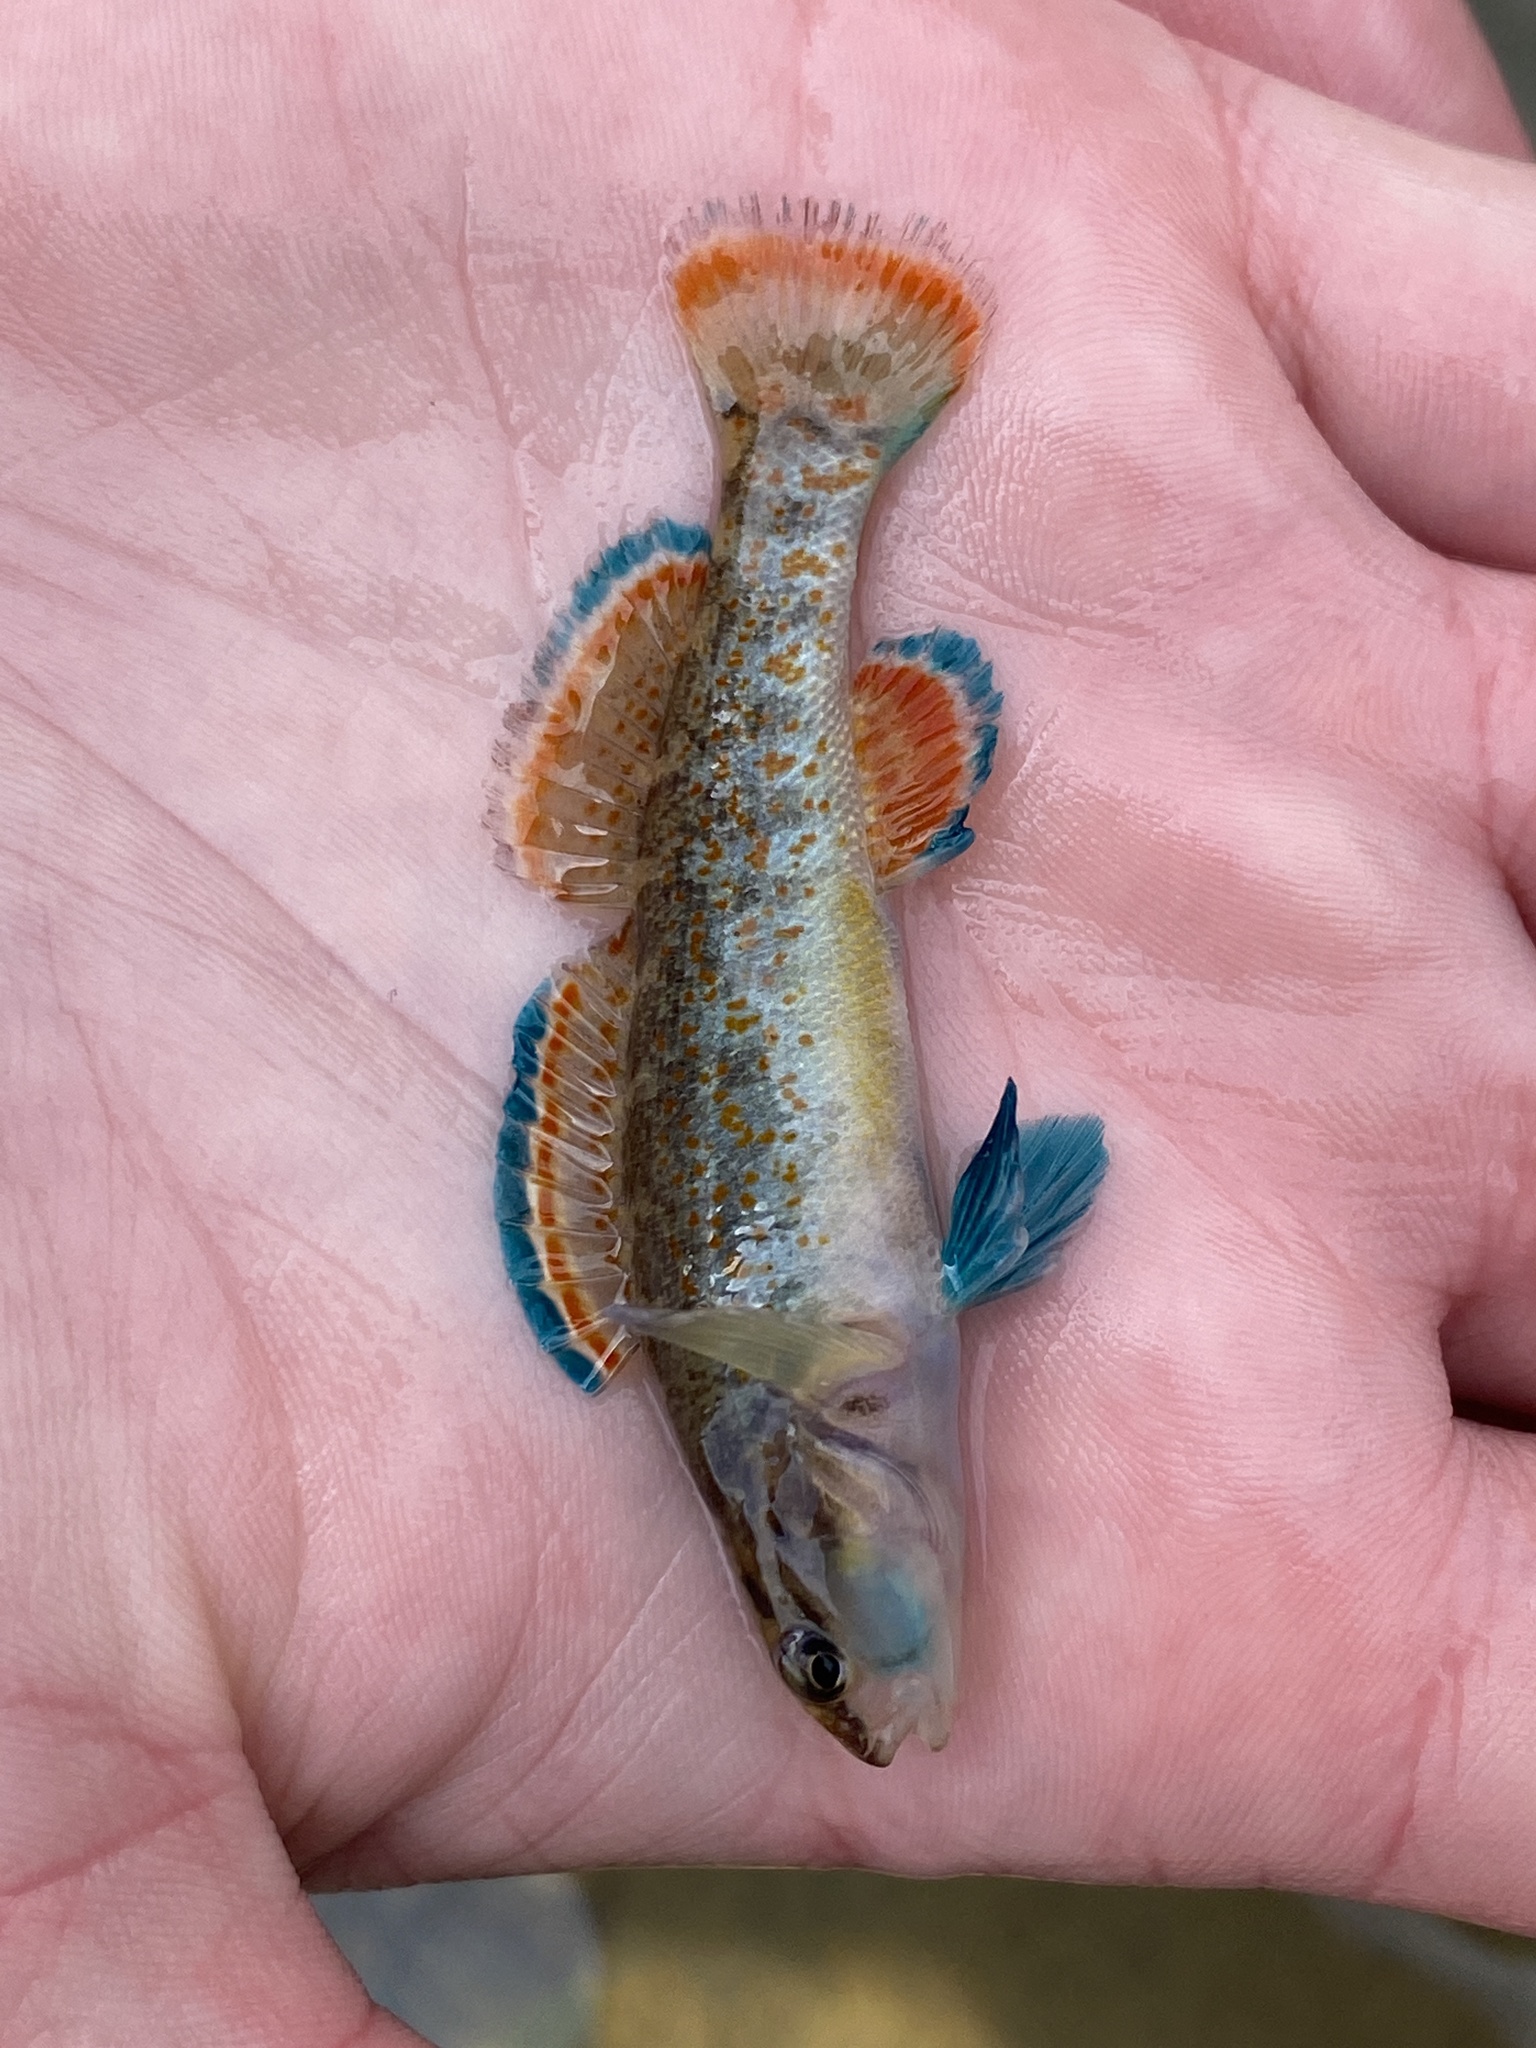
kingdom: Animalia
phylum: Chordata
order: Perciformes
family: Percidae
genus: Etheostoma
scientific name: Etheostoma artesiae
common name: Redspot darter
